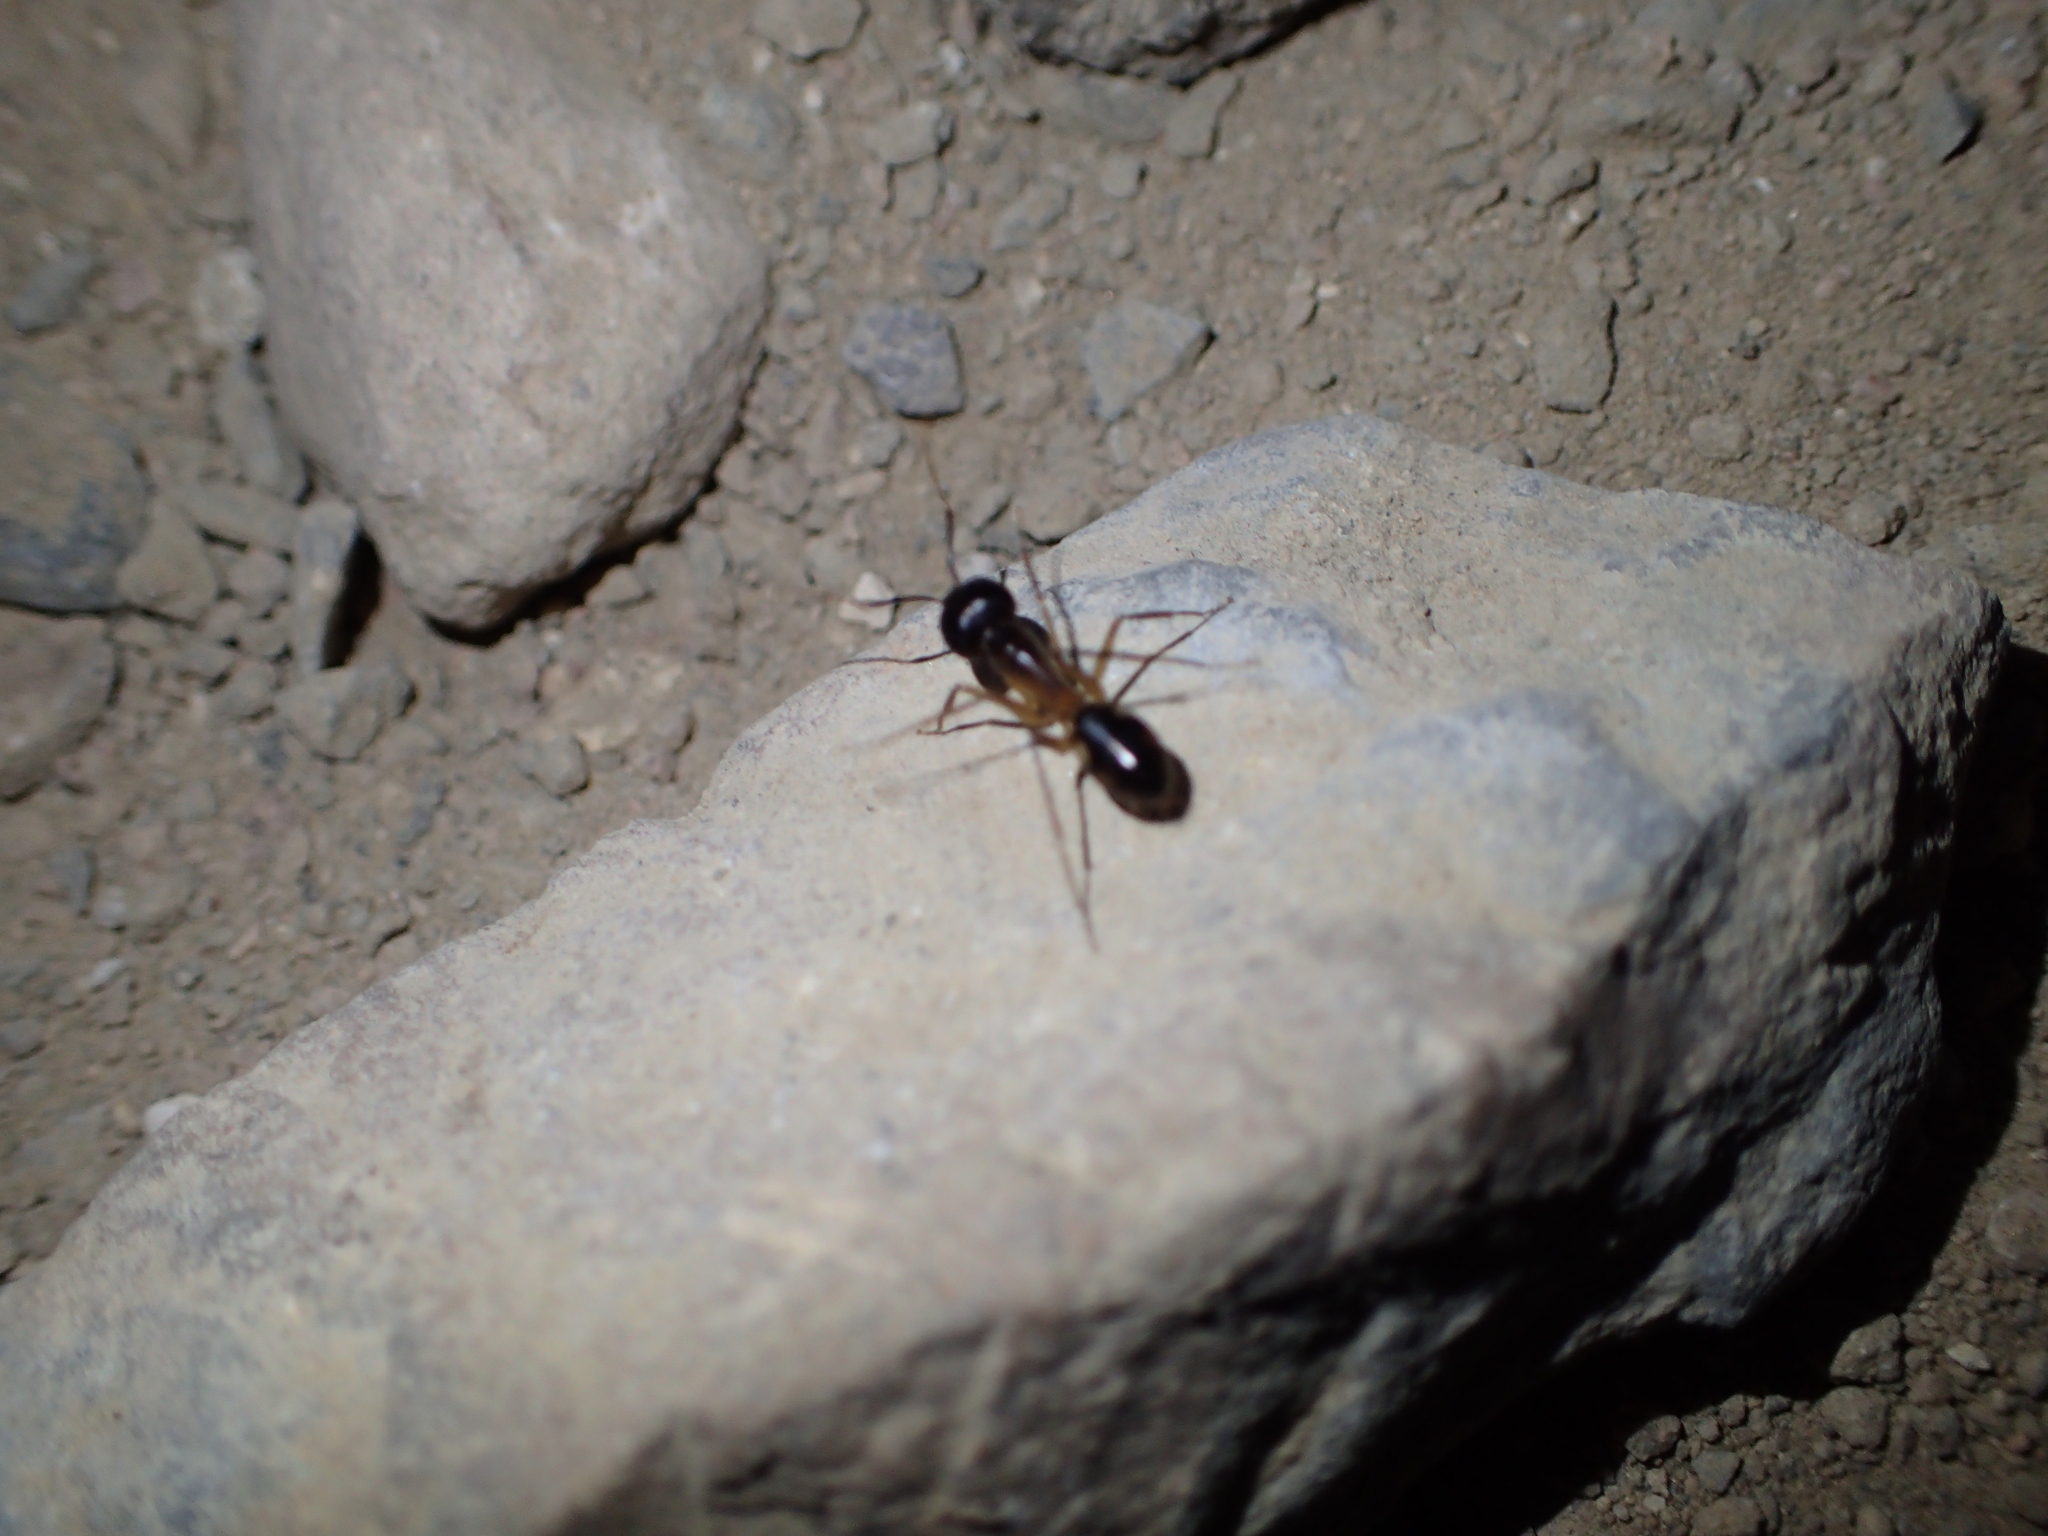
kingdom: Animalia
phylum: Arthropoda
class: Insecta
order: Hymenoptera
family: Formicidae
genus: Camponotus
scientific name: Camponotus aegyptiacus
